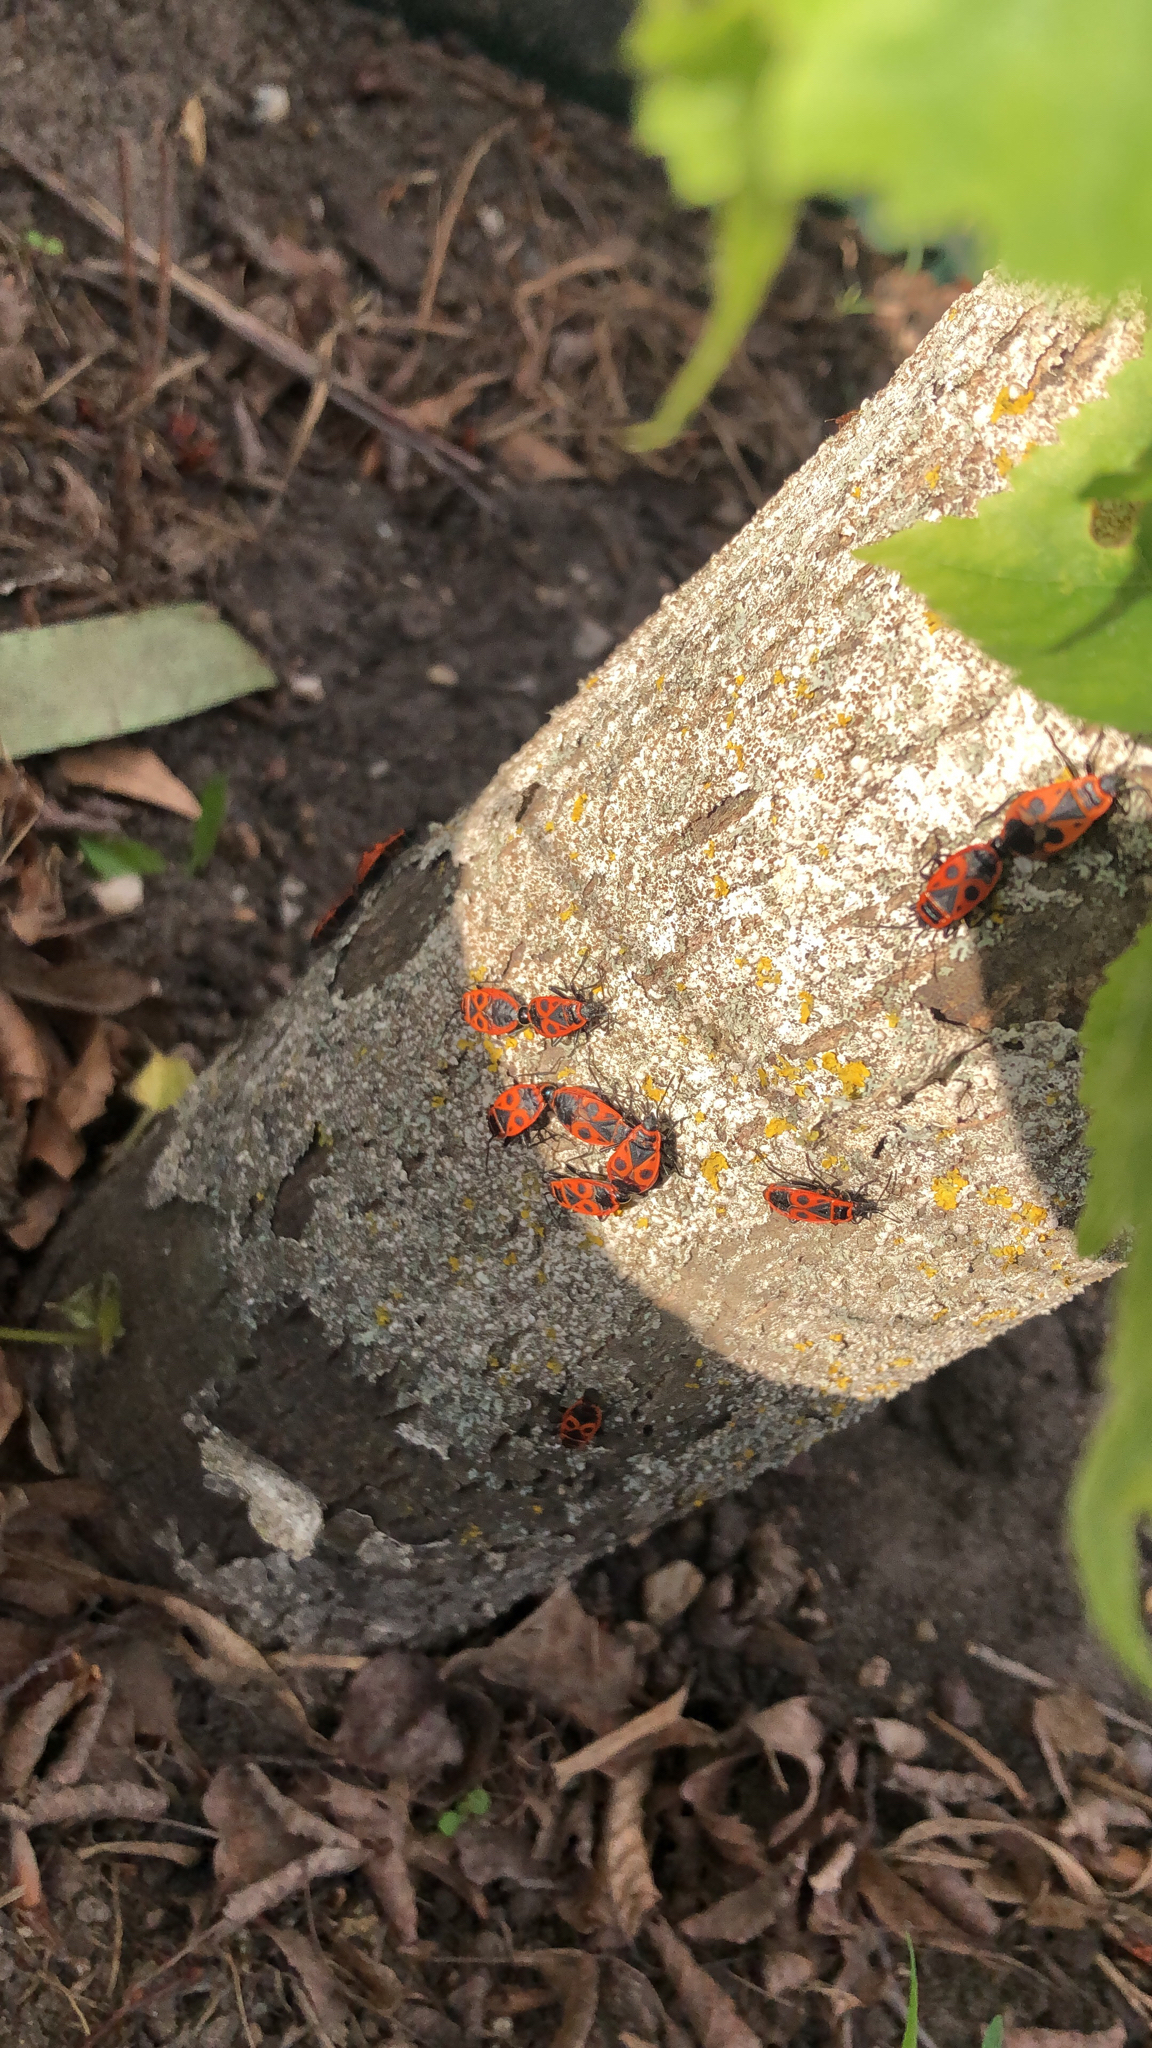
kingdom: Animalia
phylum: Arthropoda
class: Insecta
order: Hemiptera
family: Pyrrhocoridae
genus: Pyrrhocoris
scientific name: Pyrrhocoris apterus
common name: Firebug
